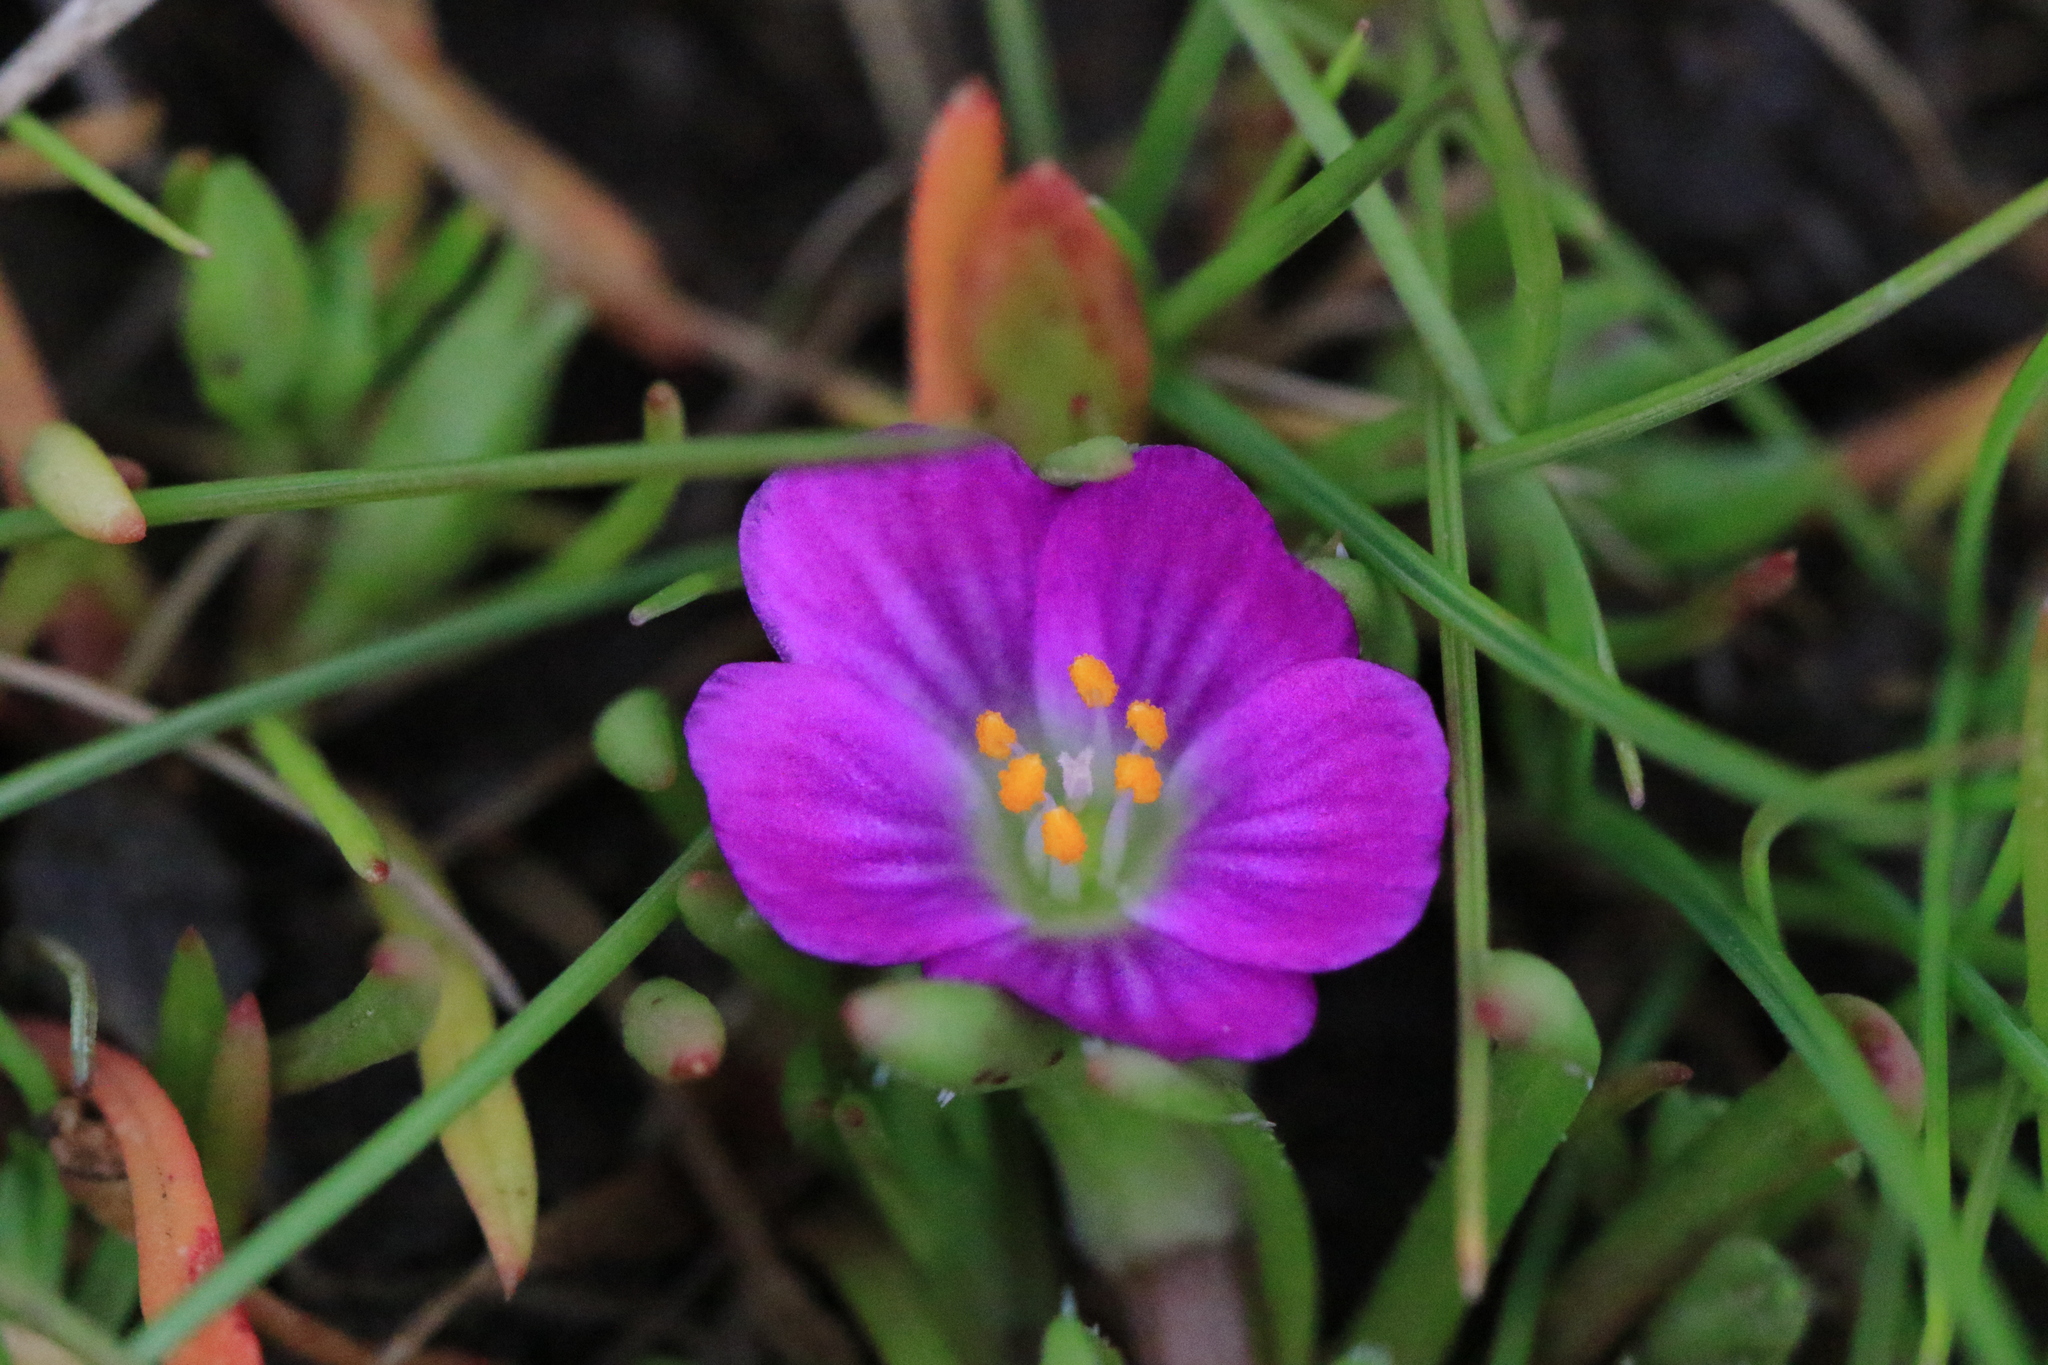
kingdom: Plantae
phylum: Tracheophyta
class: Magnoliopsida
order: Caryophyllales
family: Montiaceae
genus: Calandrinia
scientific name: Calandrinia menziesii
